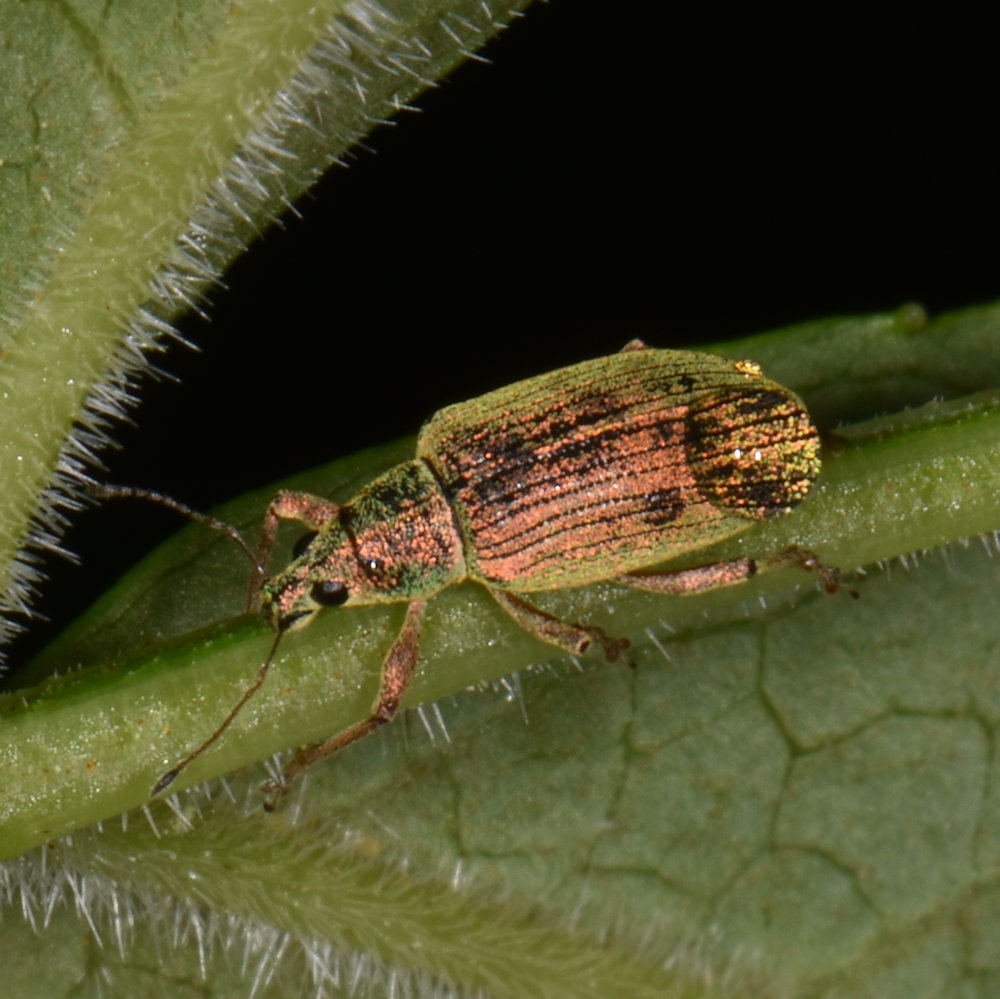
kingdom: Animalia
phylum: Arthropoda
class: Insecta
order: Coleoptera
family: Curculionidae
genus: Polydrusus
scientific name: Polydrusus formosus
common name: Weevil
